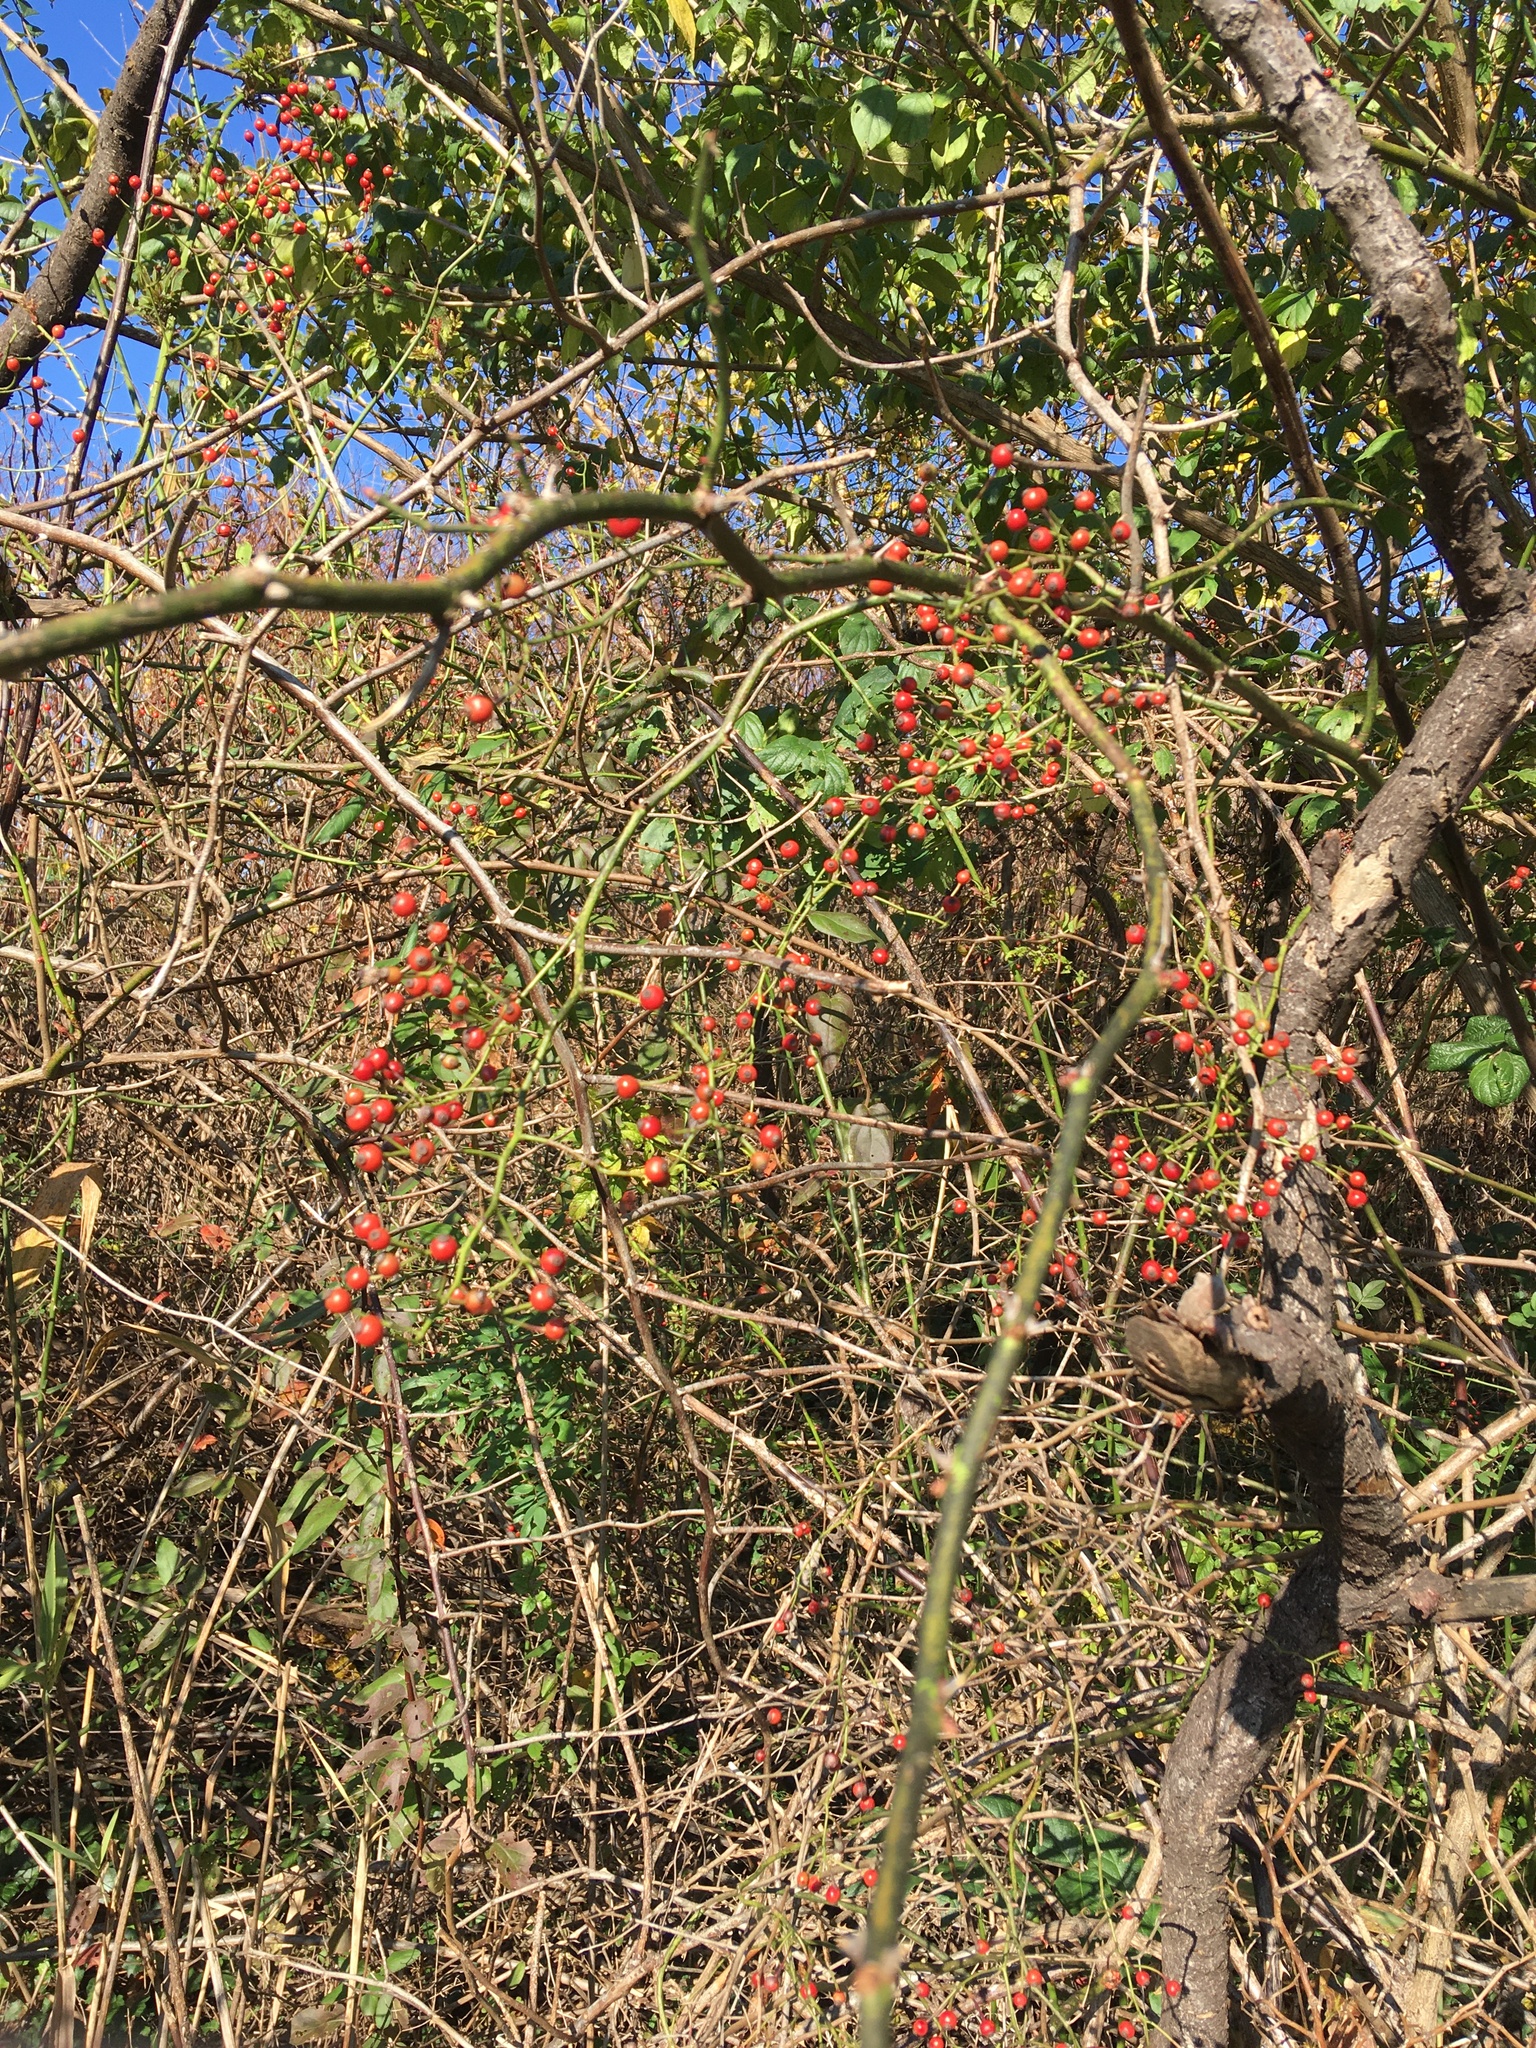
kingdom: Plantae
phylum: Tracheophyta
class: Magnoliopsida
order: Rosales
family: Rosaceae
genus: Rosa
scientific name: Rosa multiflora
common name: Multiflora rose
